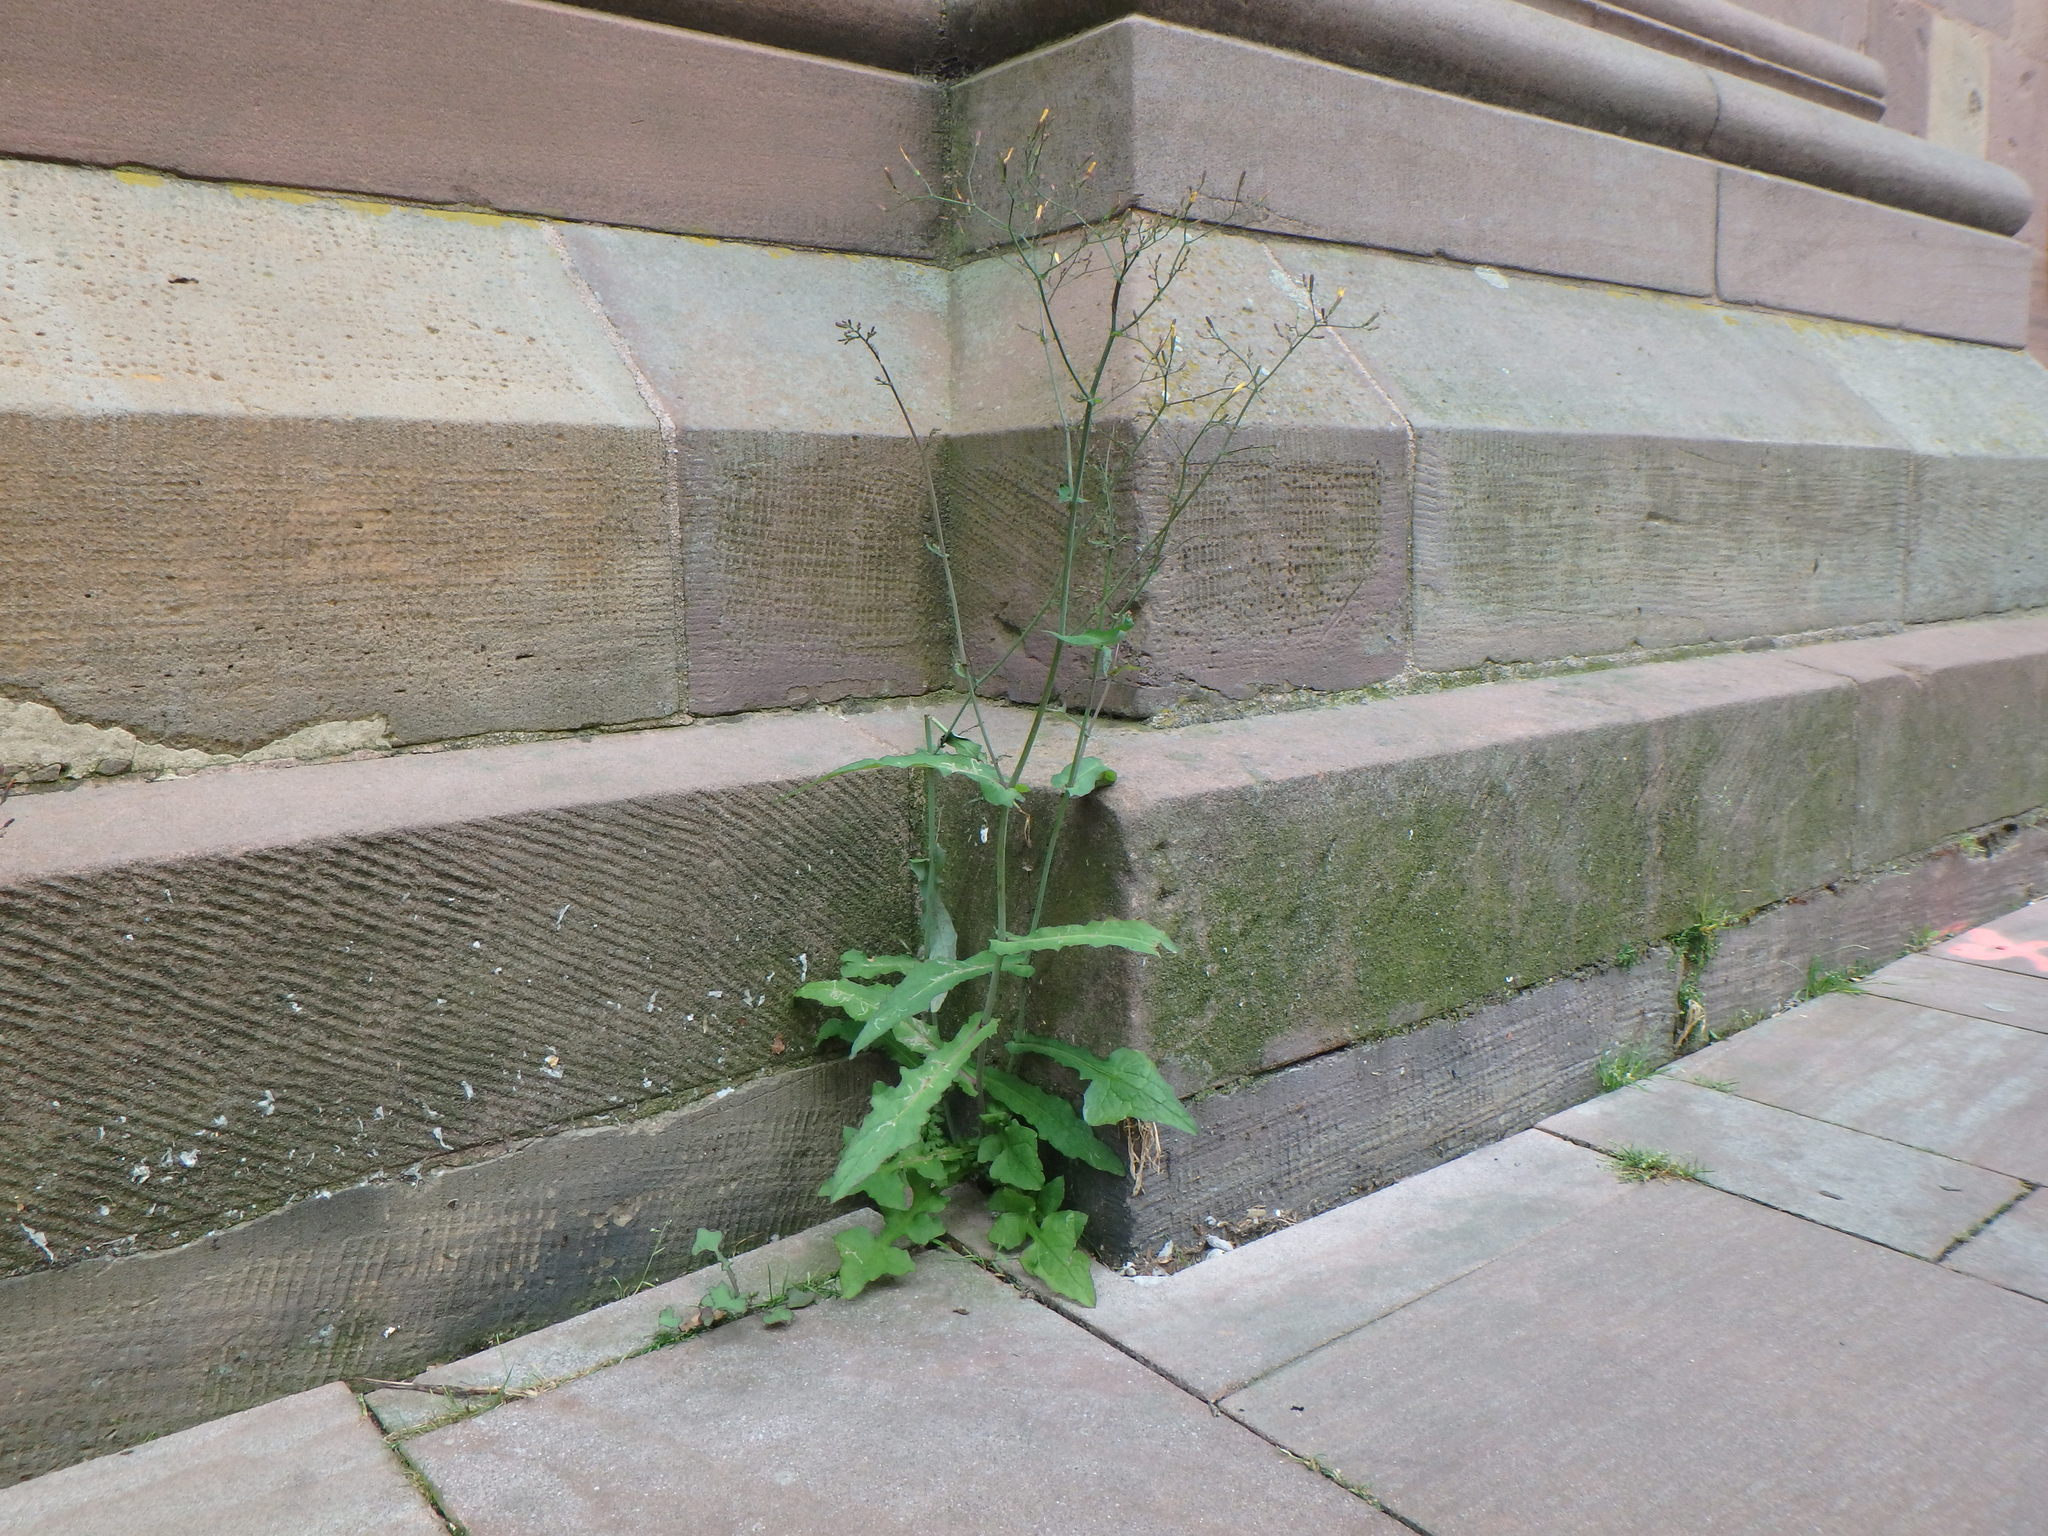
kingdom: Plantae
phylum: Tracheophyta
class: Magnoliopsida
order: Asterales
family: Asteraceae
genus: Mycelis
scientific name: Mycelis muralis
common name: Wall lettuce
